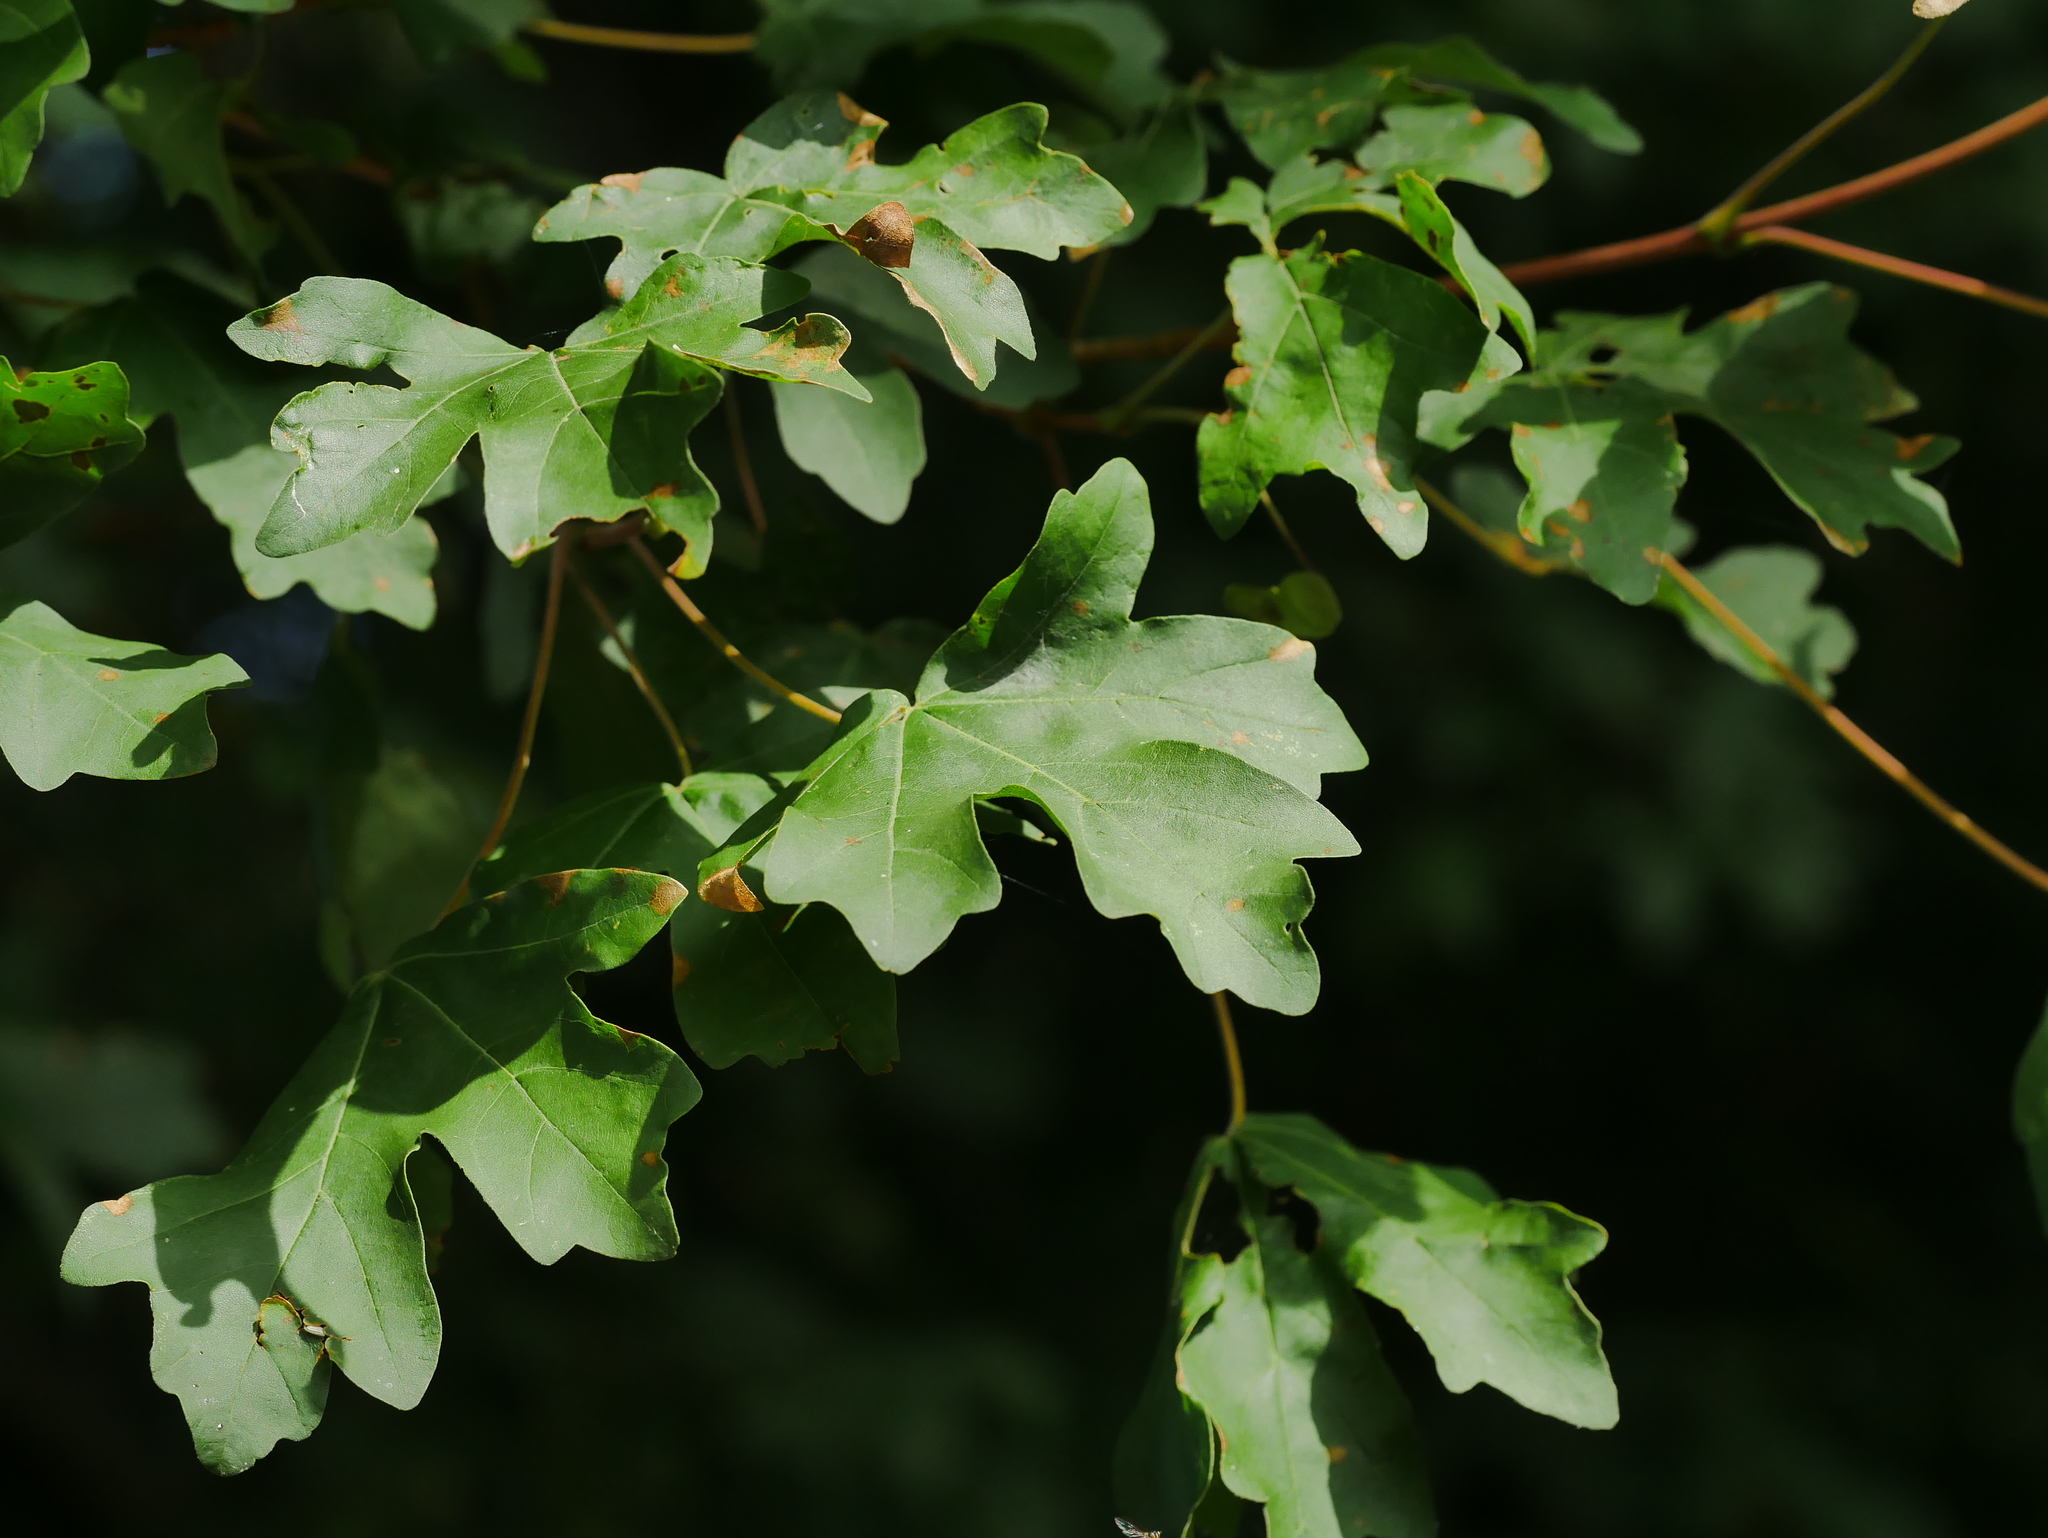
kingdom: Plantae
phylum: Tracheophyta
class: Magnoliopsida
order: Sapindales
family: Sapindaceae
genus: Acer
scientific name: Acer campestre
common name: Field maple
